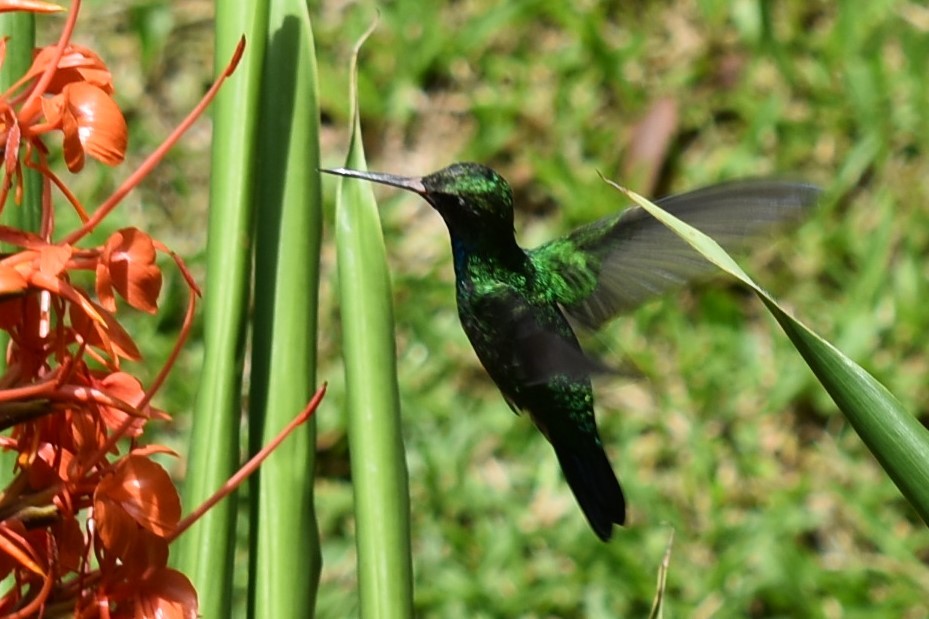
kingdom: Animalia
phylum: Chordata
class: Aves
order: Apodiformes
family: Trochilidae
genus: Chlorostilbon
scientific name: Chlorostilbon lucidus
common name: Glittering-bellied emerald
